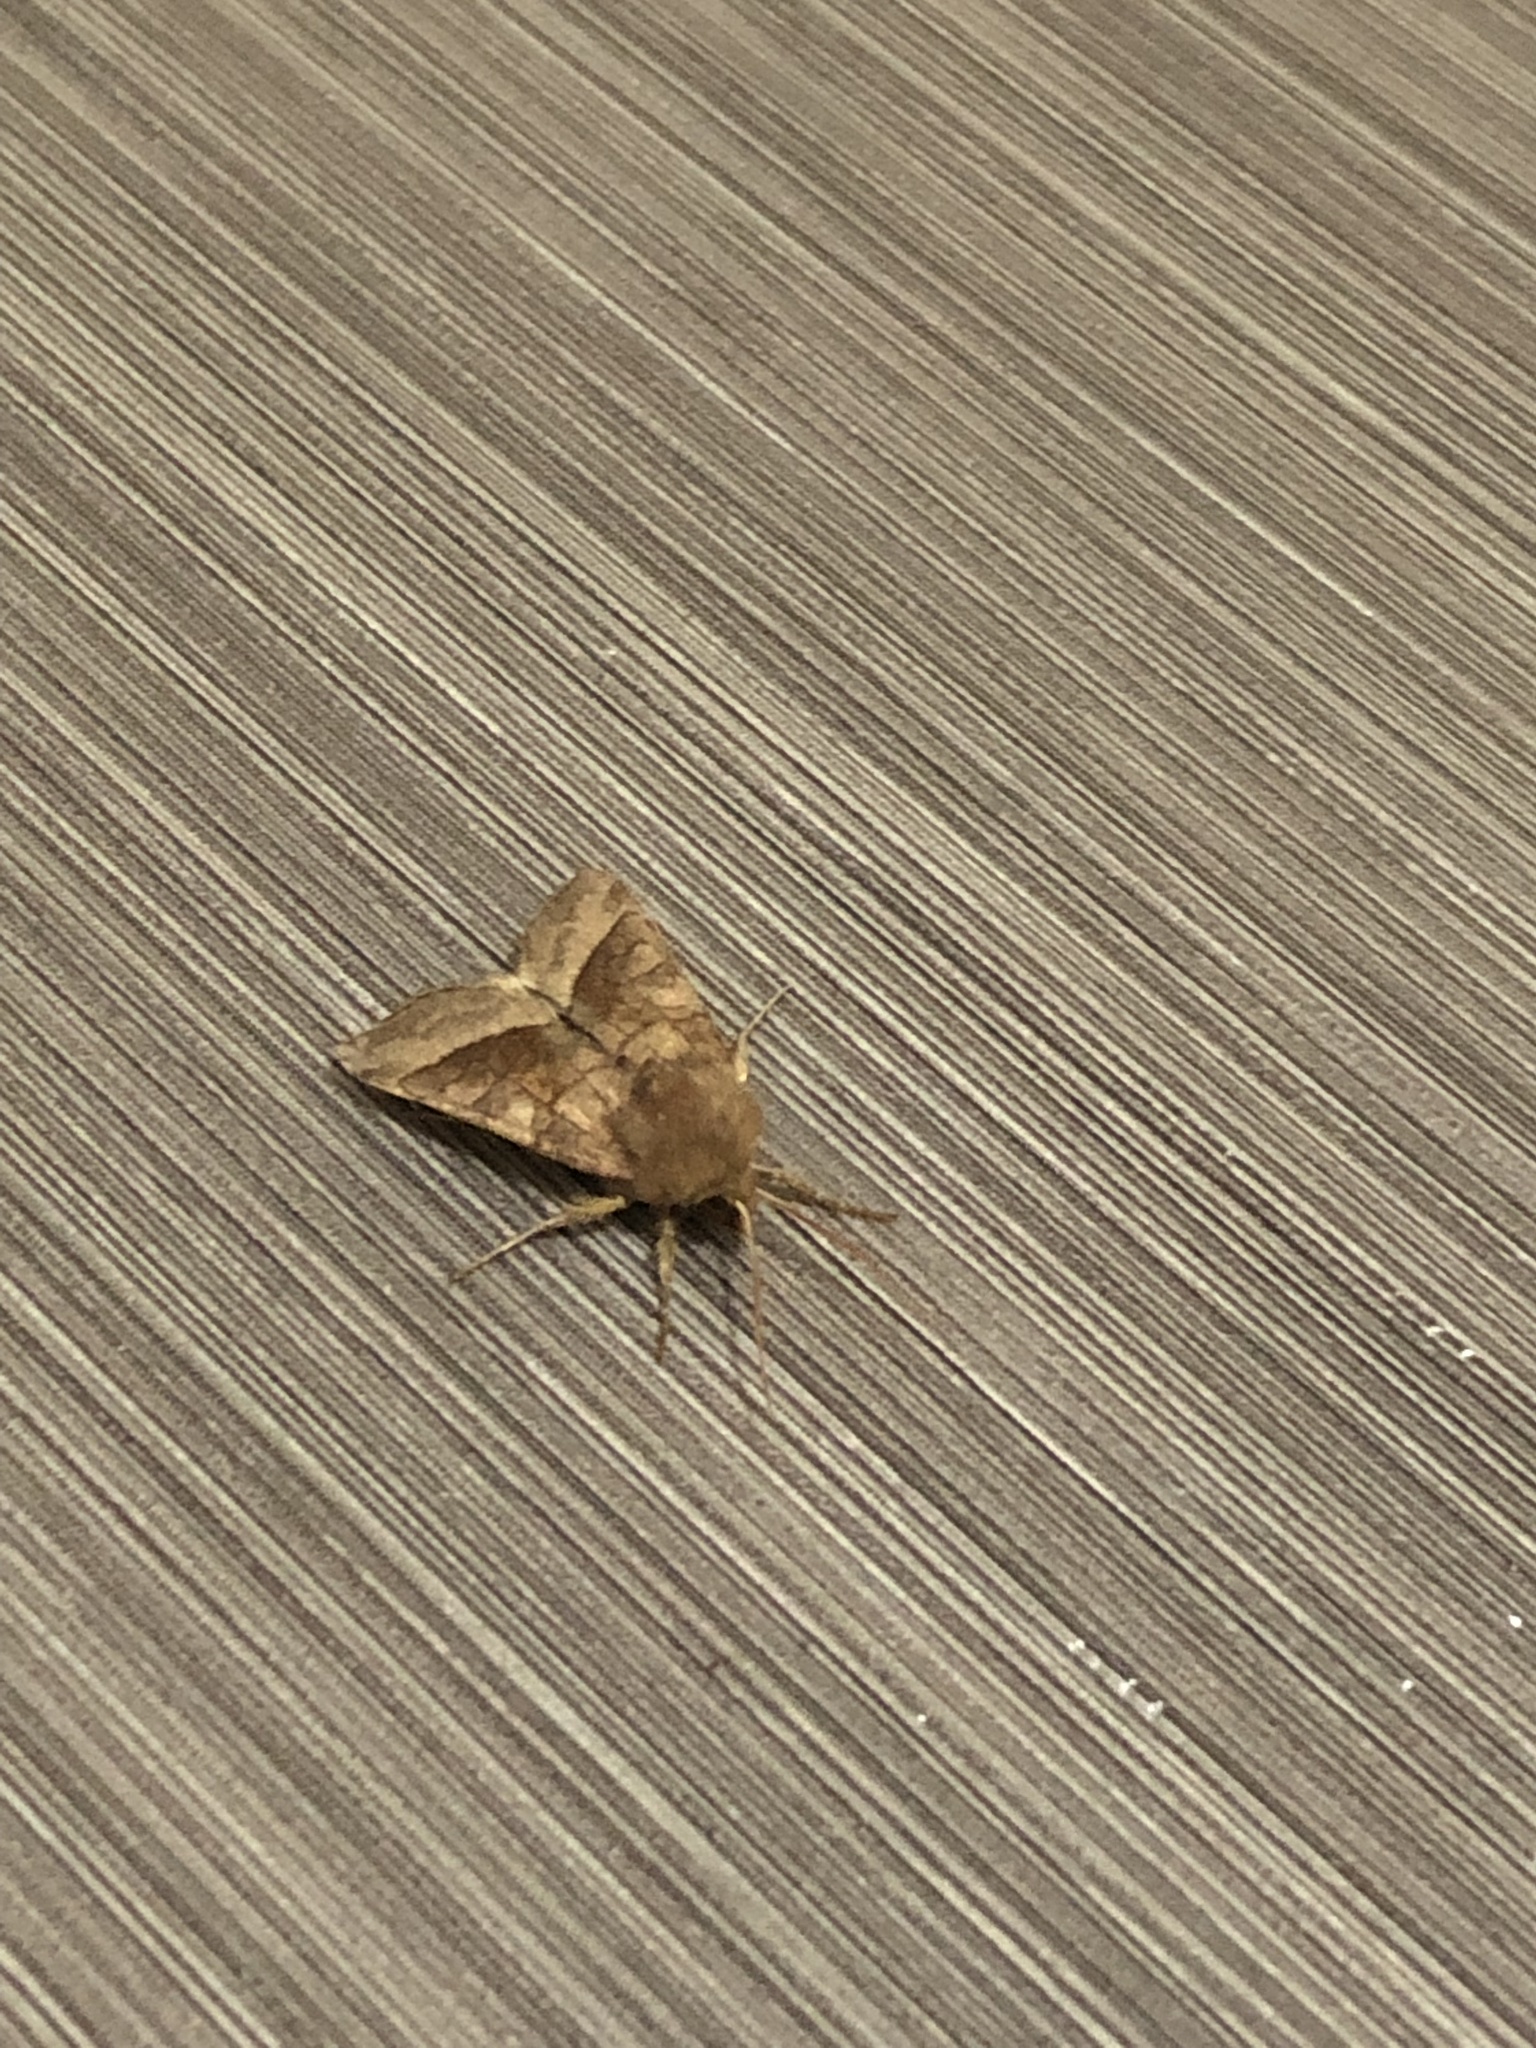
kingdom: Animalia
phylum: Arthropoda
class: Insecta
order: Lepidoptera
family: Noctuidae
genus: Hydraecia
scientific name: Hydraecia micacea
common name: Rosy rustic
